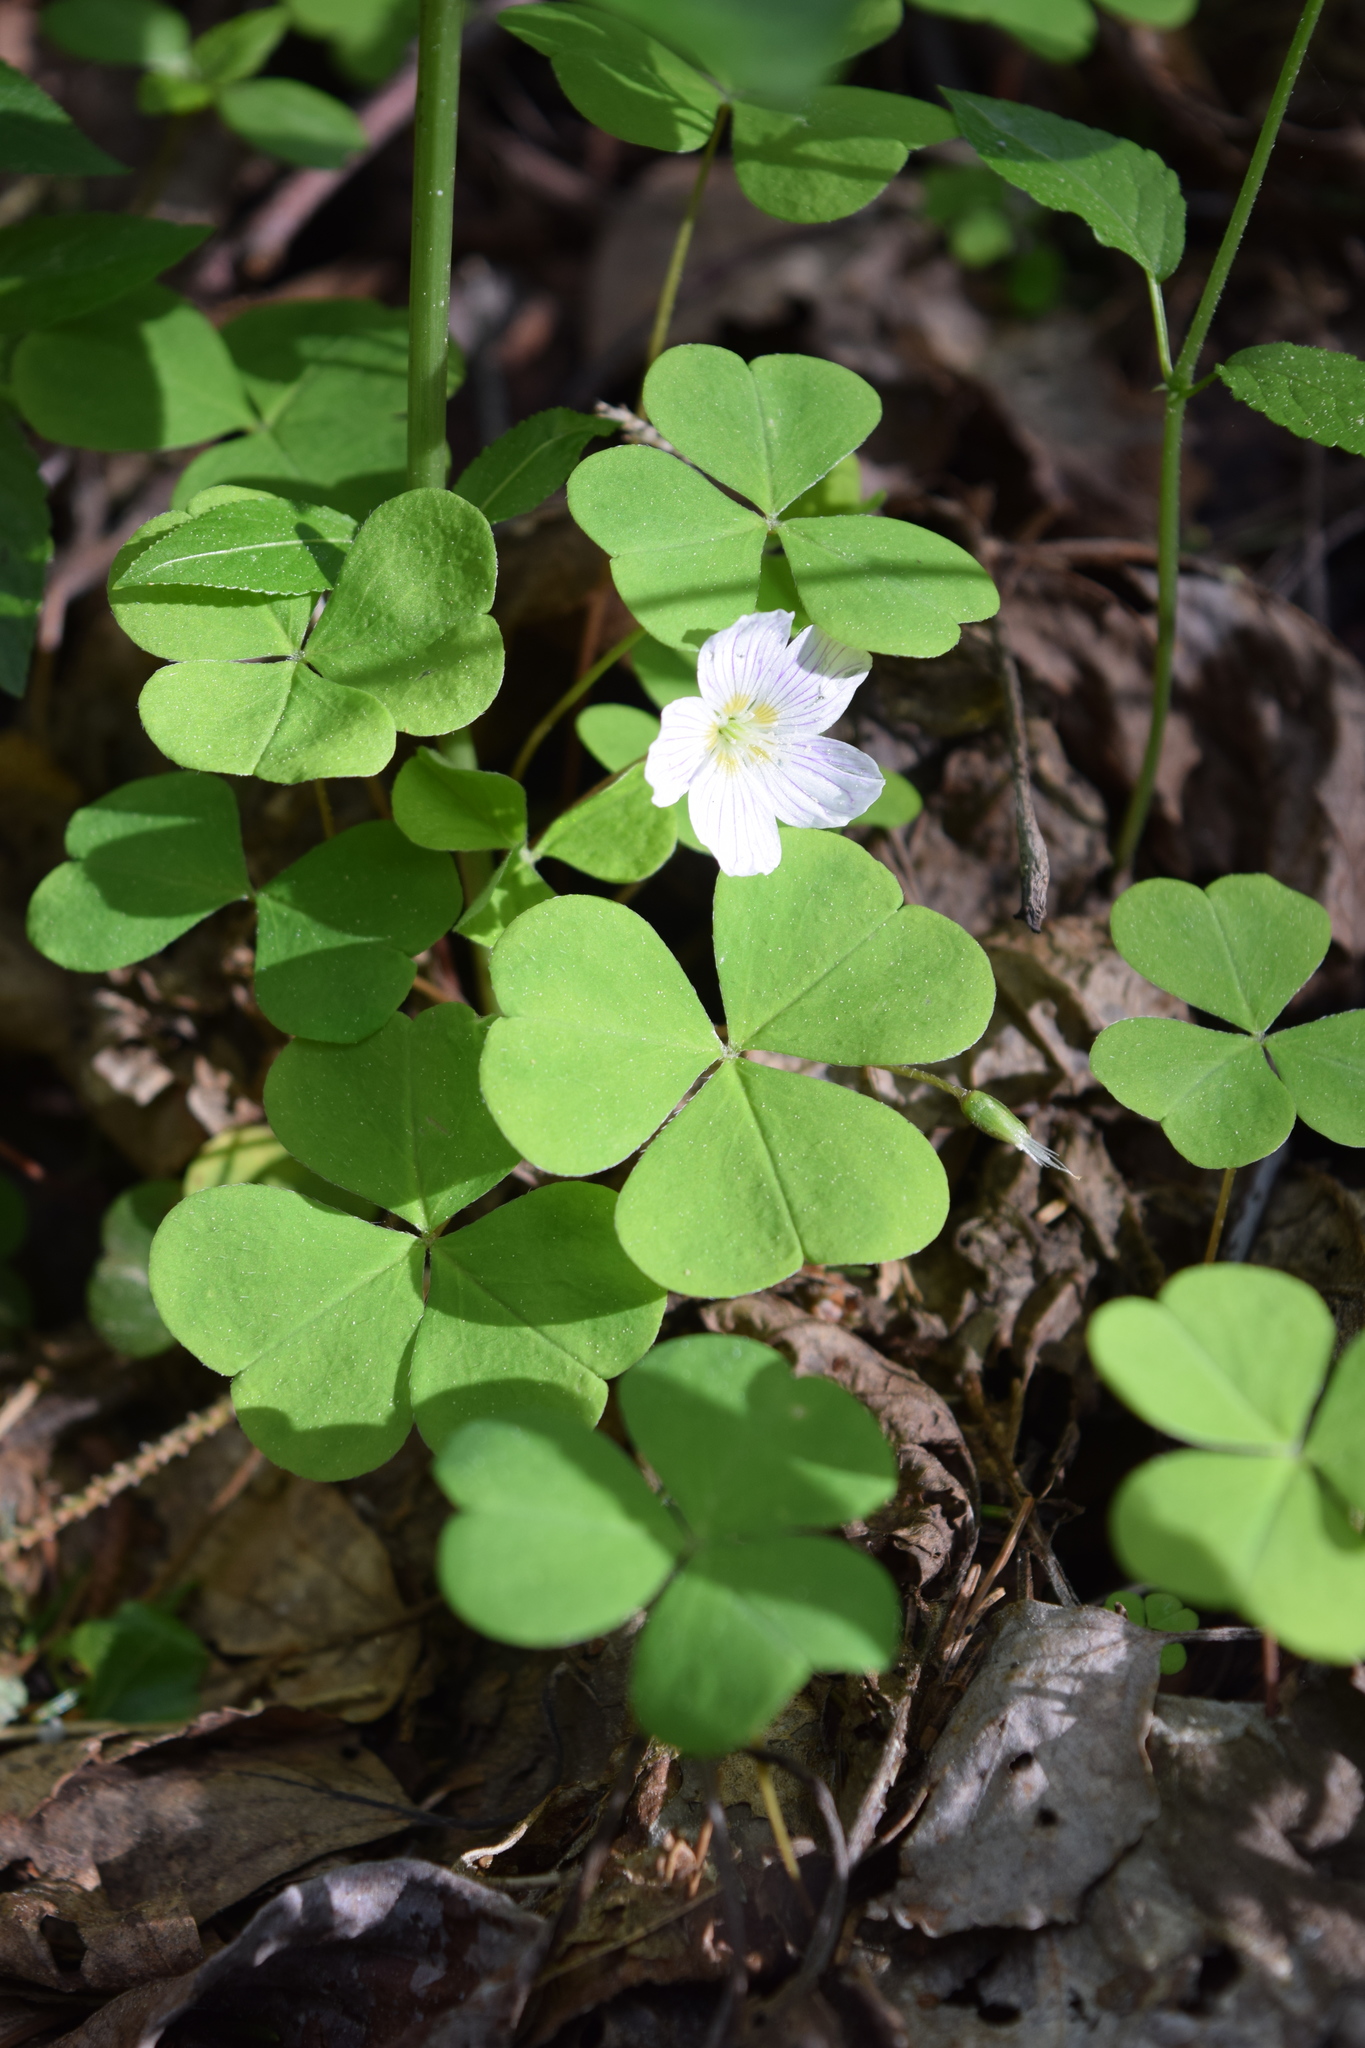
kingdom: Plantae
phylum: Tracheophyta
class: Magnoliopsida
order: Oxalidales
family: Oxalidaceae
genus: Oxalis
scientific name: Oxalis acetosella
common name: Wood-sorrel
